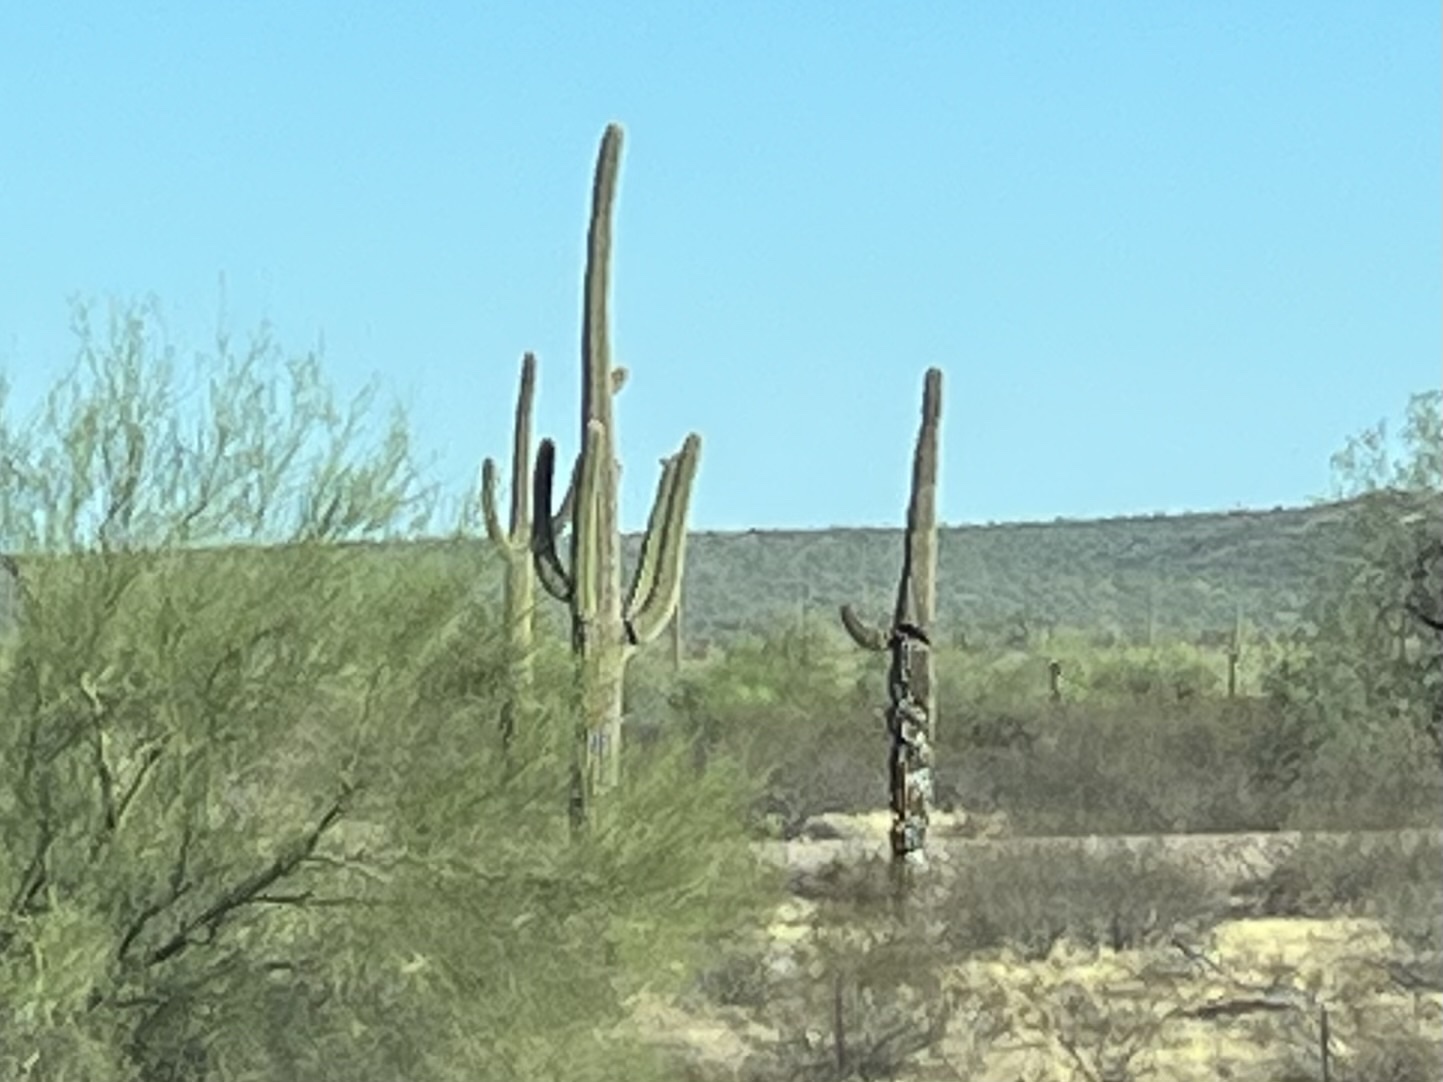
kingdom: Plantae
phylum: Tracheophyta
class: Magnoliopsida
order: Caryophyllales
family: Cactaceae
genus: Carnegiea
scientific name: Carnegiea gigantea
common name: Saguaro
